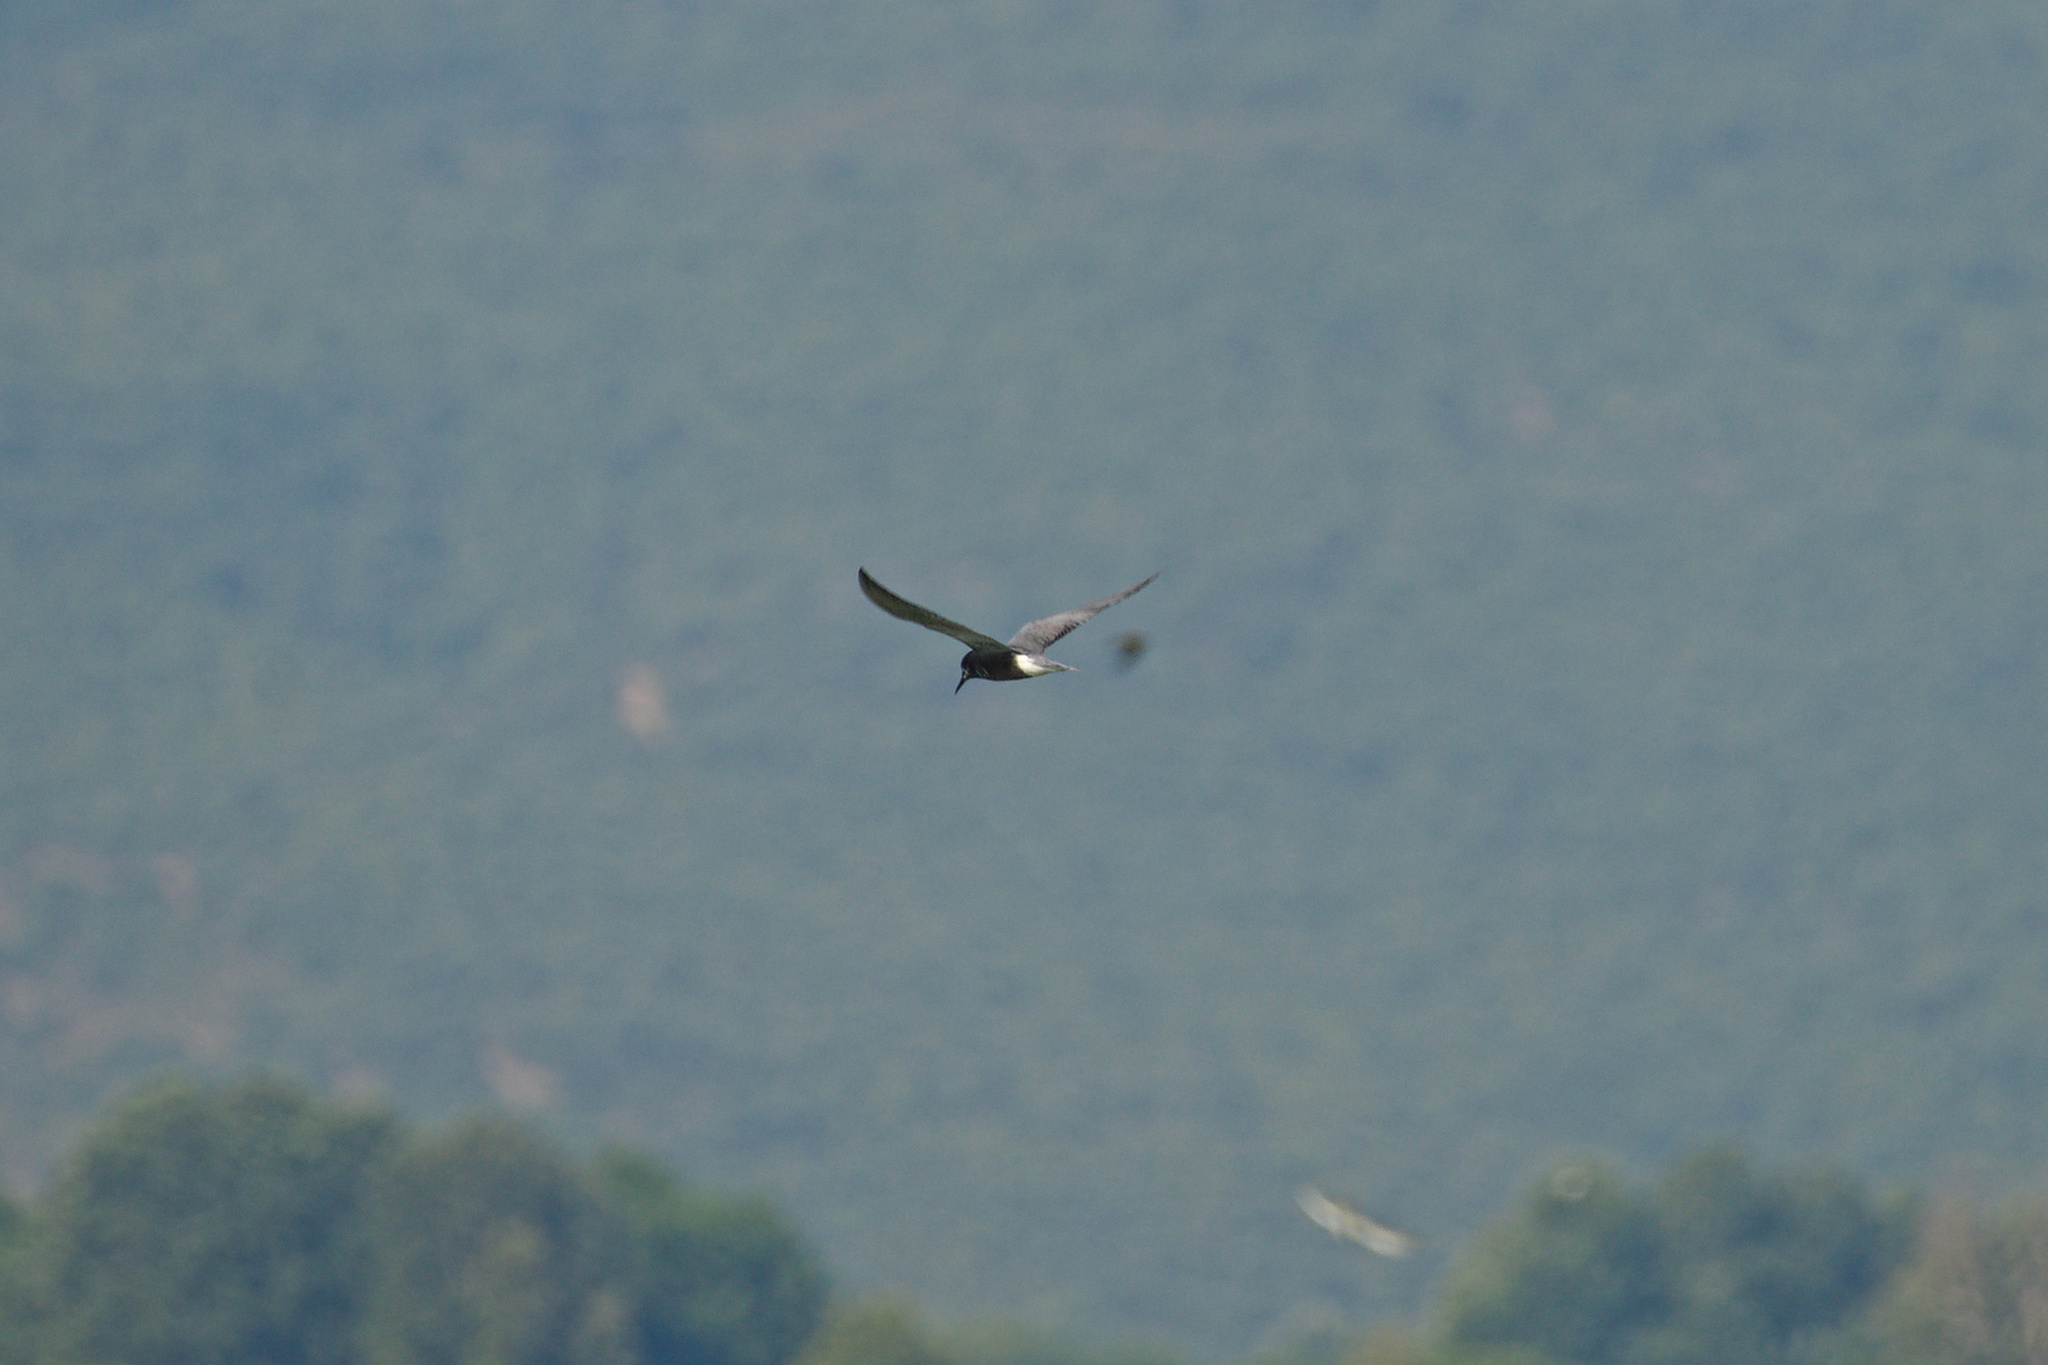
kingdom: Animalia
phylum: Chordata
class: Aves
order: Charadriiformes
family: Laridae
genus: Chlidonias
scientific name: Chlidonias niger
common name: Black tern
